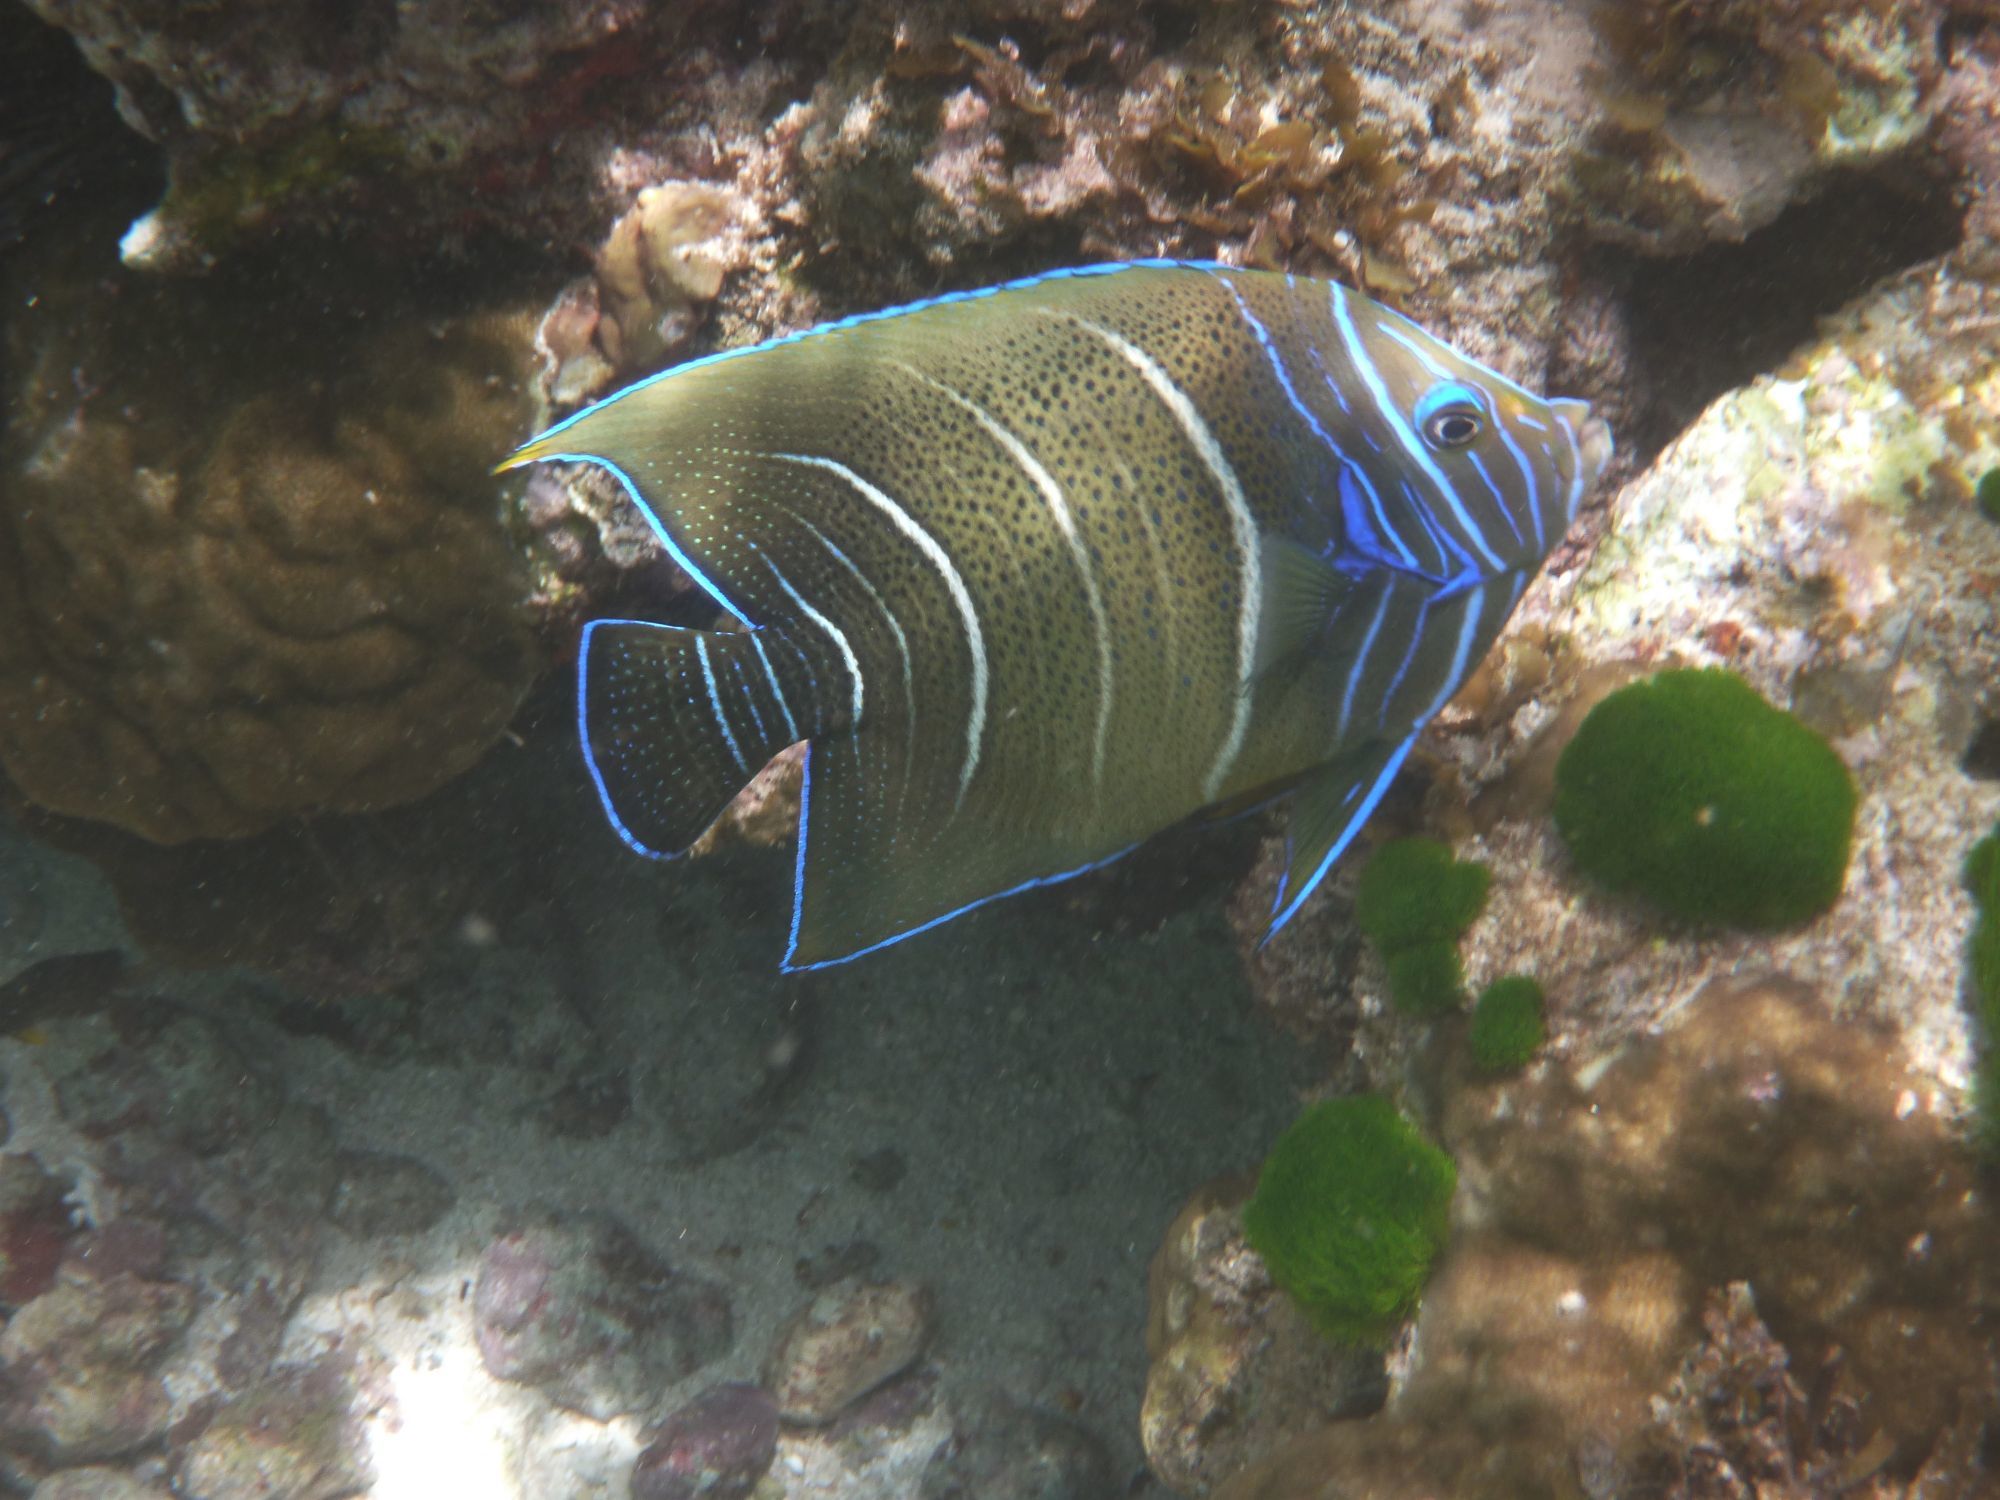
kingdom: Animalia
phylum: Chordata
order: Perciformes
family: Pomacanthidae
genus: Pomacanthus
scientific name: Pomacanthus semicirculatus
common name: Semicircle angelfish
